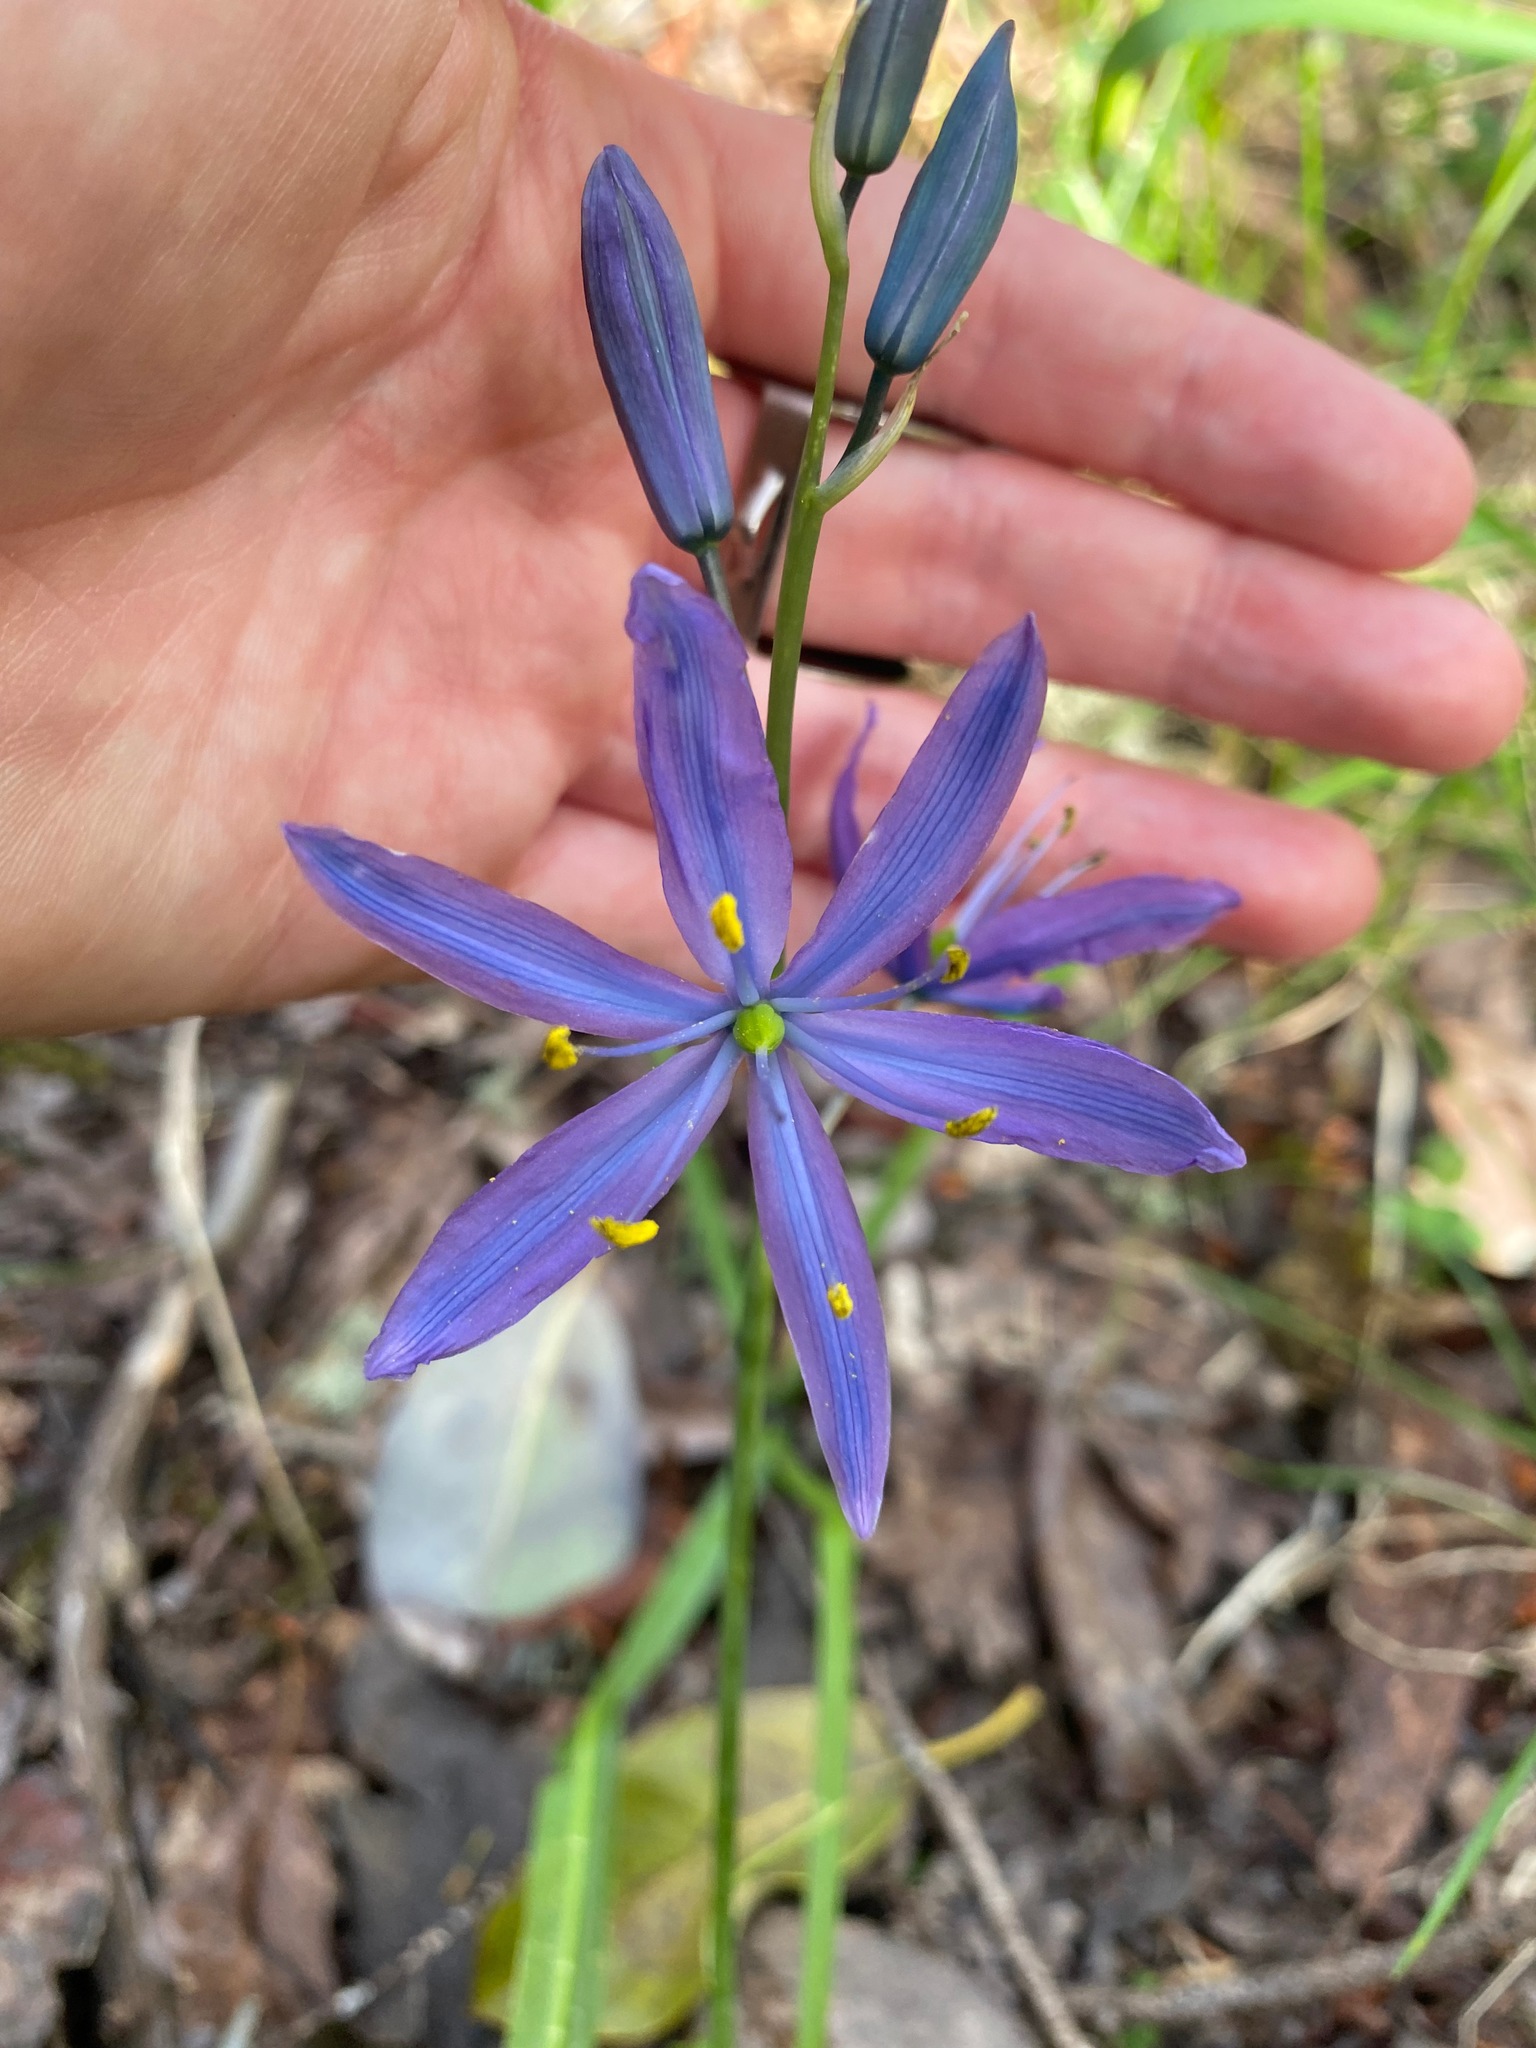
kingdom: Plantae
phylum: Tracheophyta
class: Liliopsida
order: Asparagales
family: Asparagaceae
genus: Camassia
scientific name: Camassia leichtlinii
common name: Leichtlin's camas
